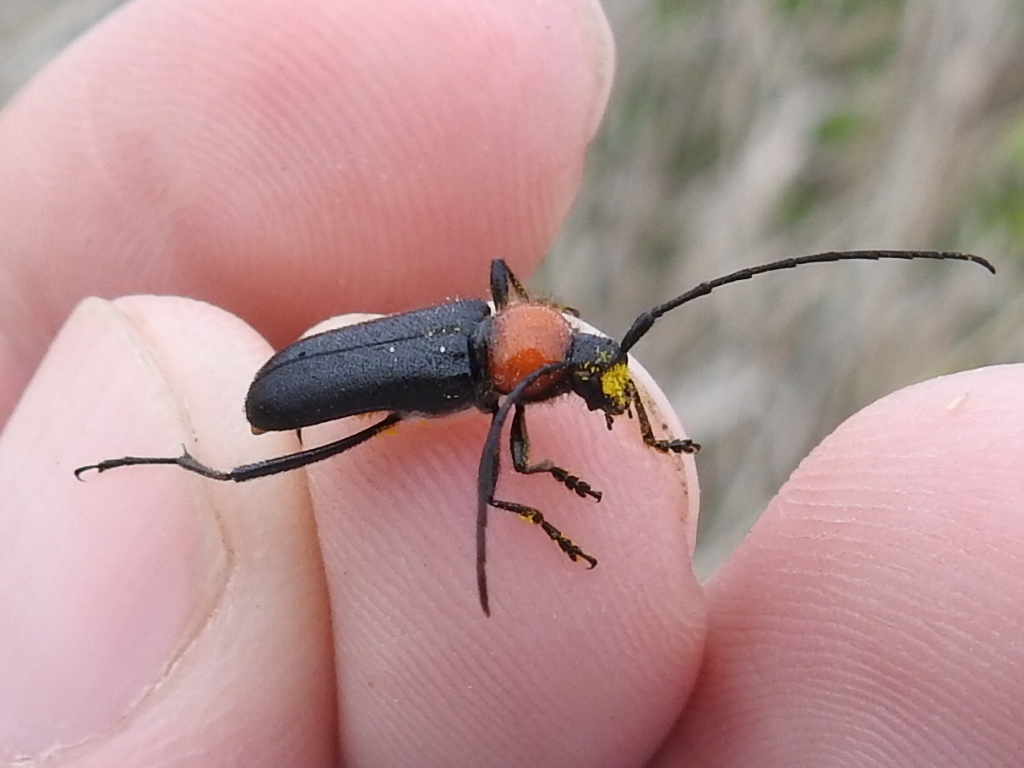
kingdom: Animalia
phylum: Arthropoda
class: Insecta
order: Coleoptera
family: Cerambycidae
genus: Batyle
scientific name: Batyle ignicollis
